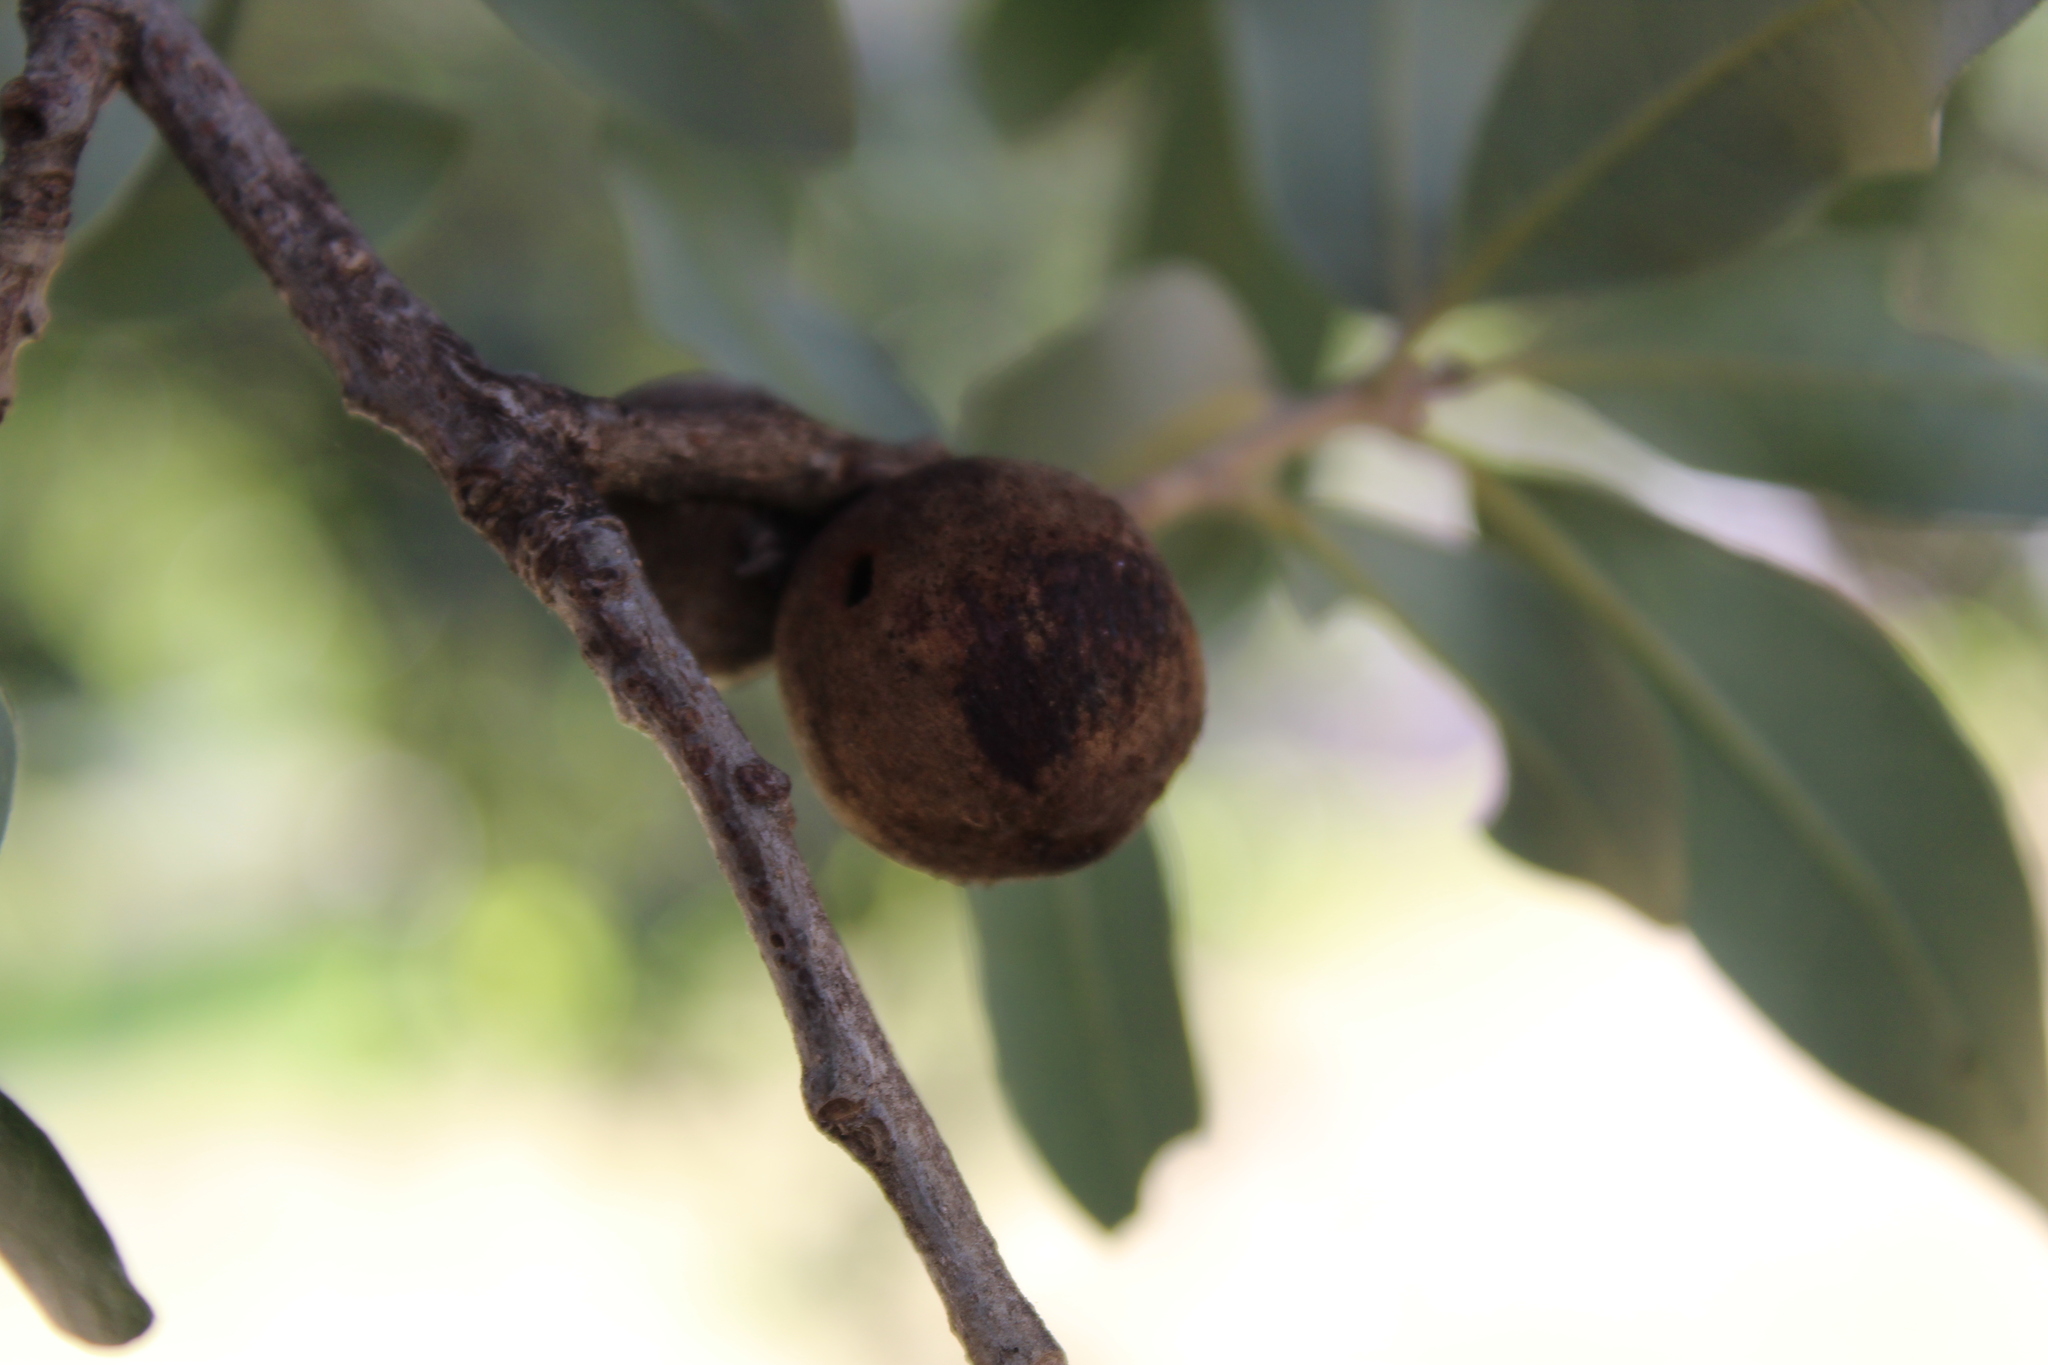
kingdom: Animalia
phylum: Arthropoda
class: Insecta
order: Hymenoptera
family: Cynipidae
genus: Disholcaspis
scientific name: Disholcaspis
